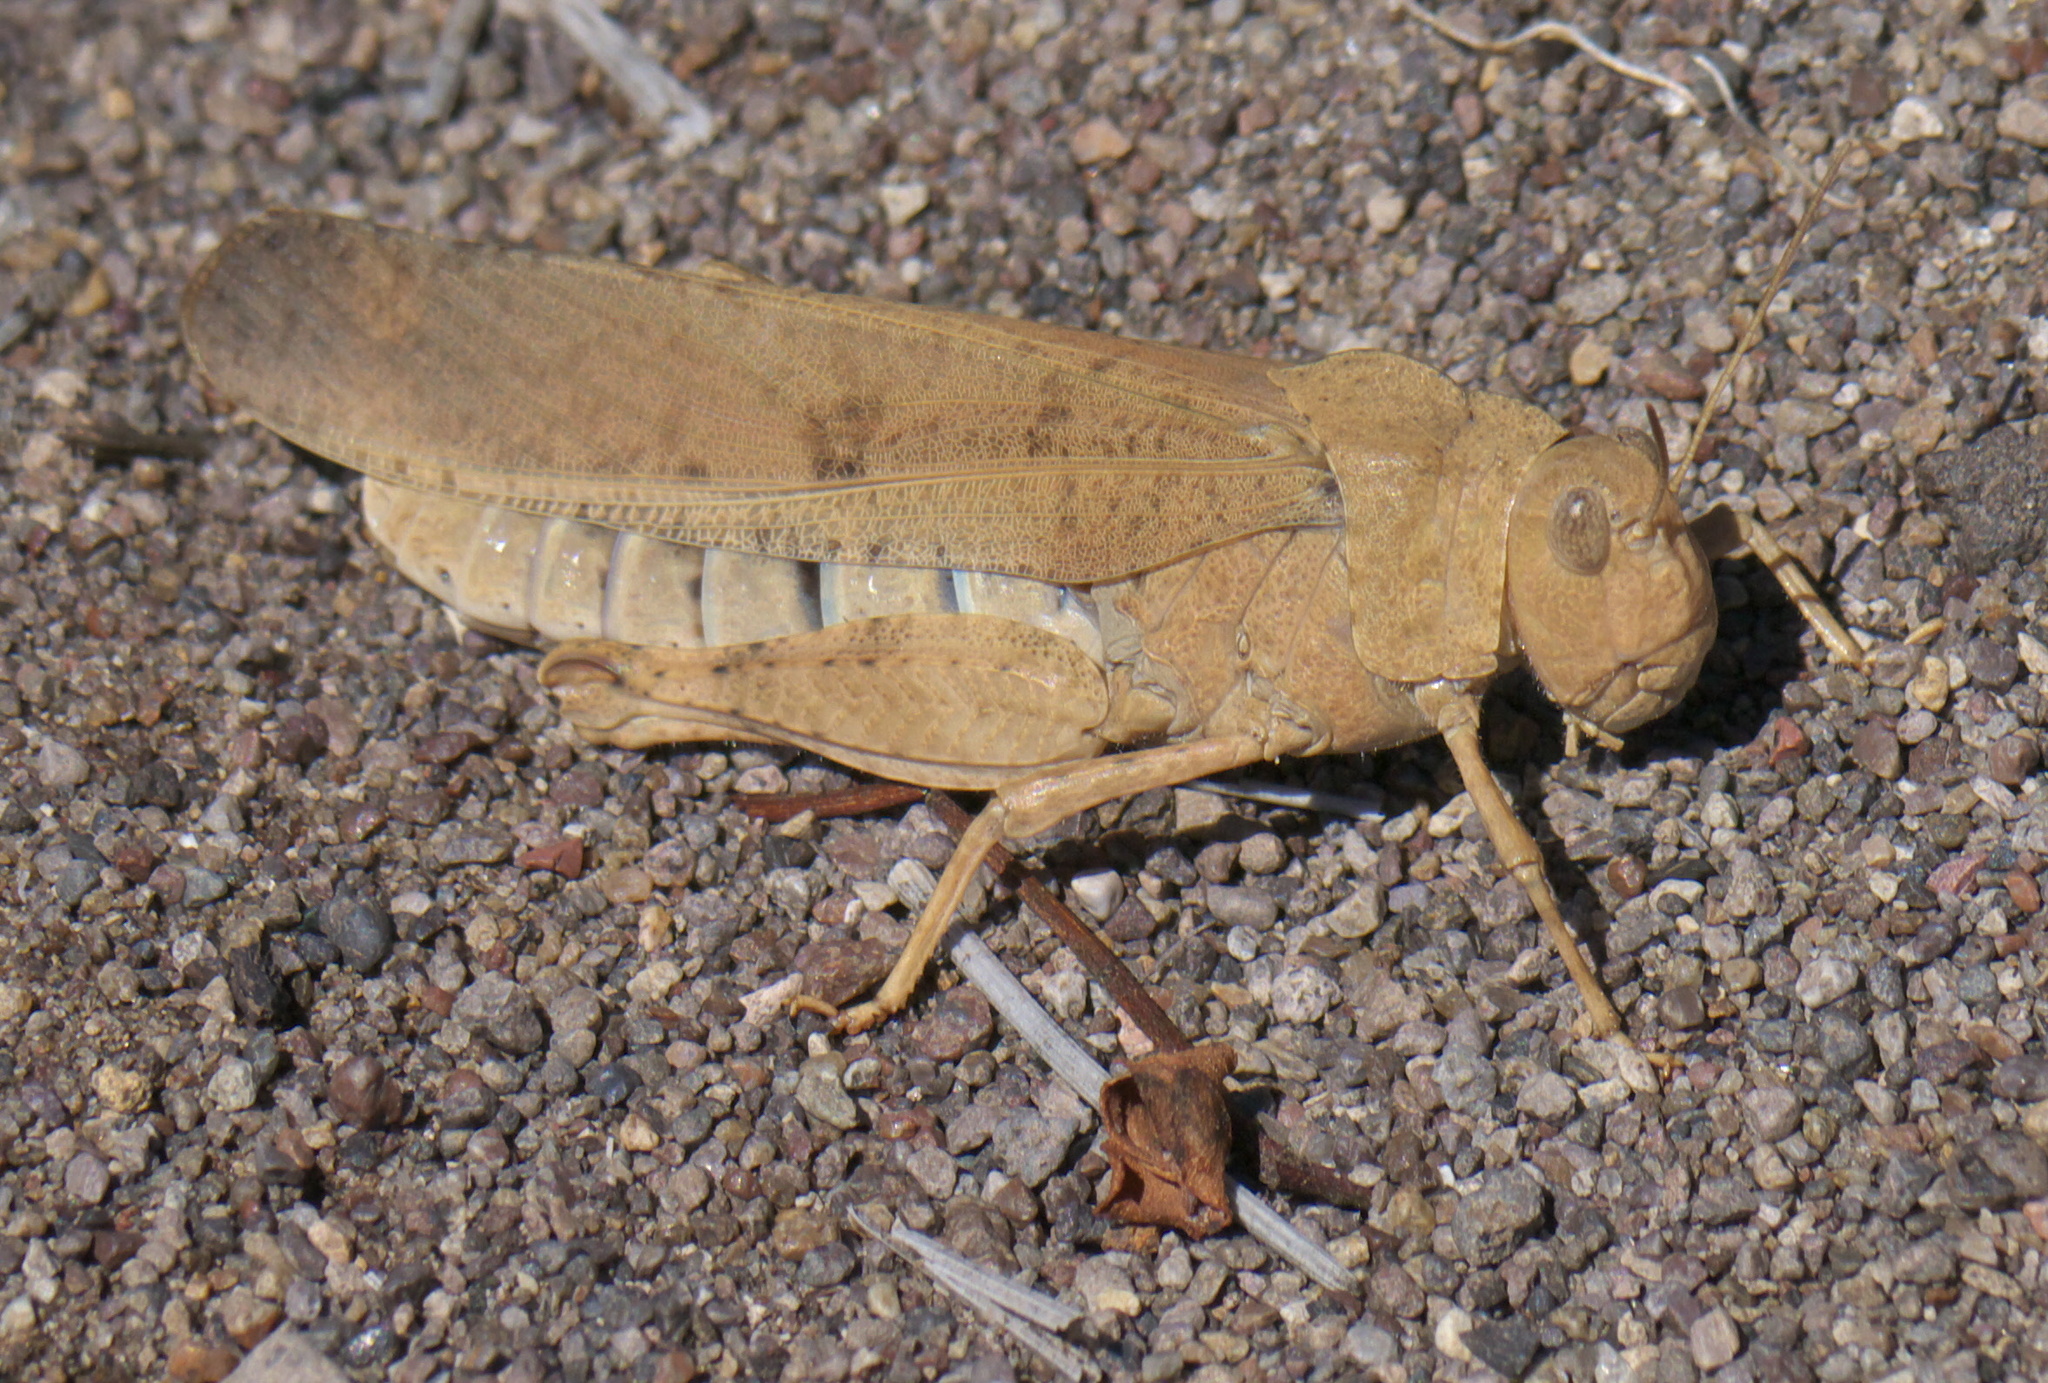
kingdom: Animalia
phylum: Arthropoda
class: Insecta
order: Orthoptera
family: Acrididae
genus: Dissosteira
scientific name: Dissosteira carolina
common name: Carolina grasshopper
